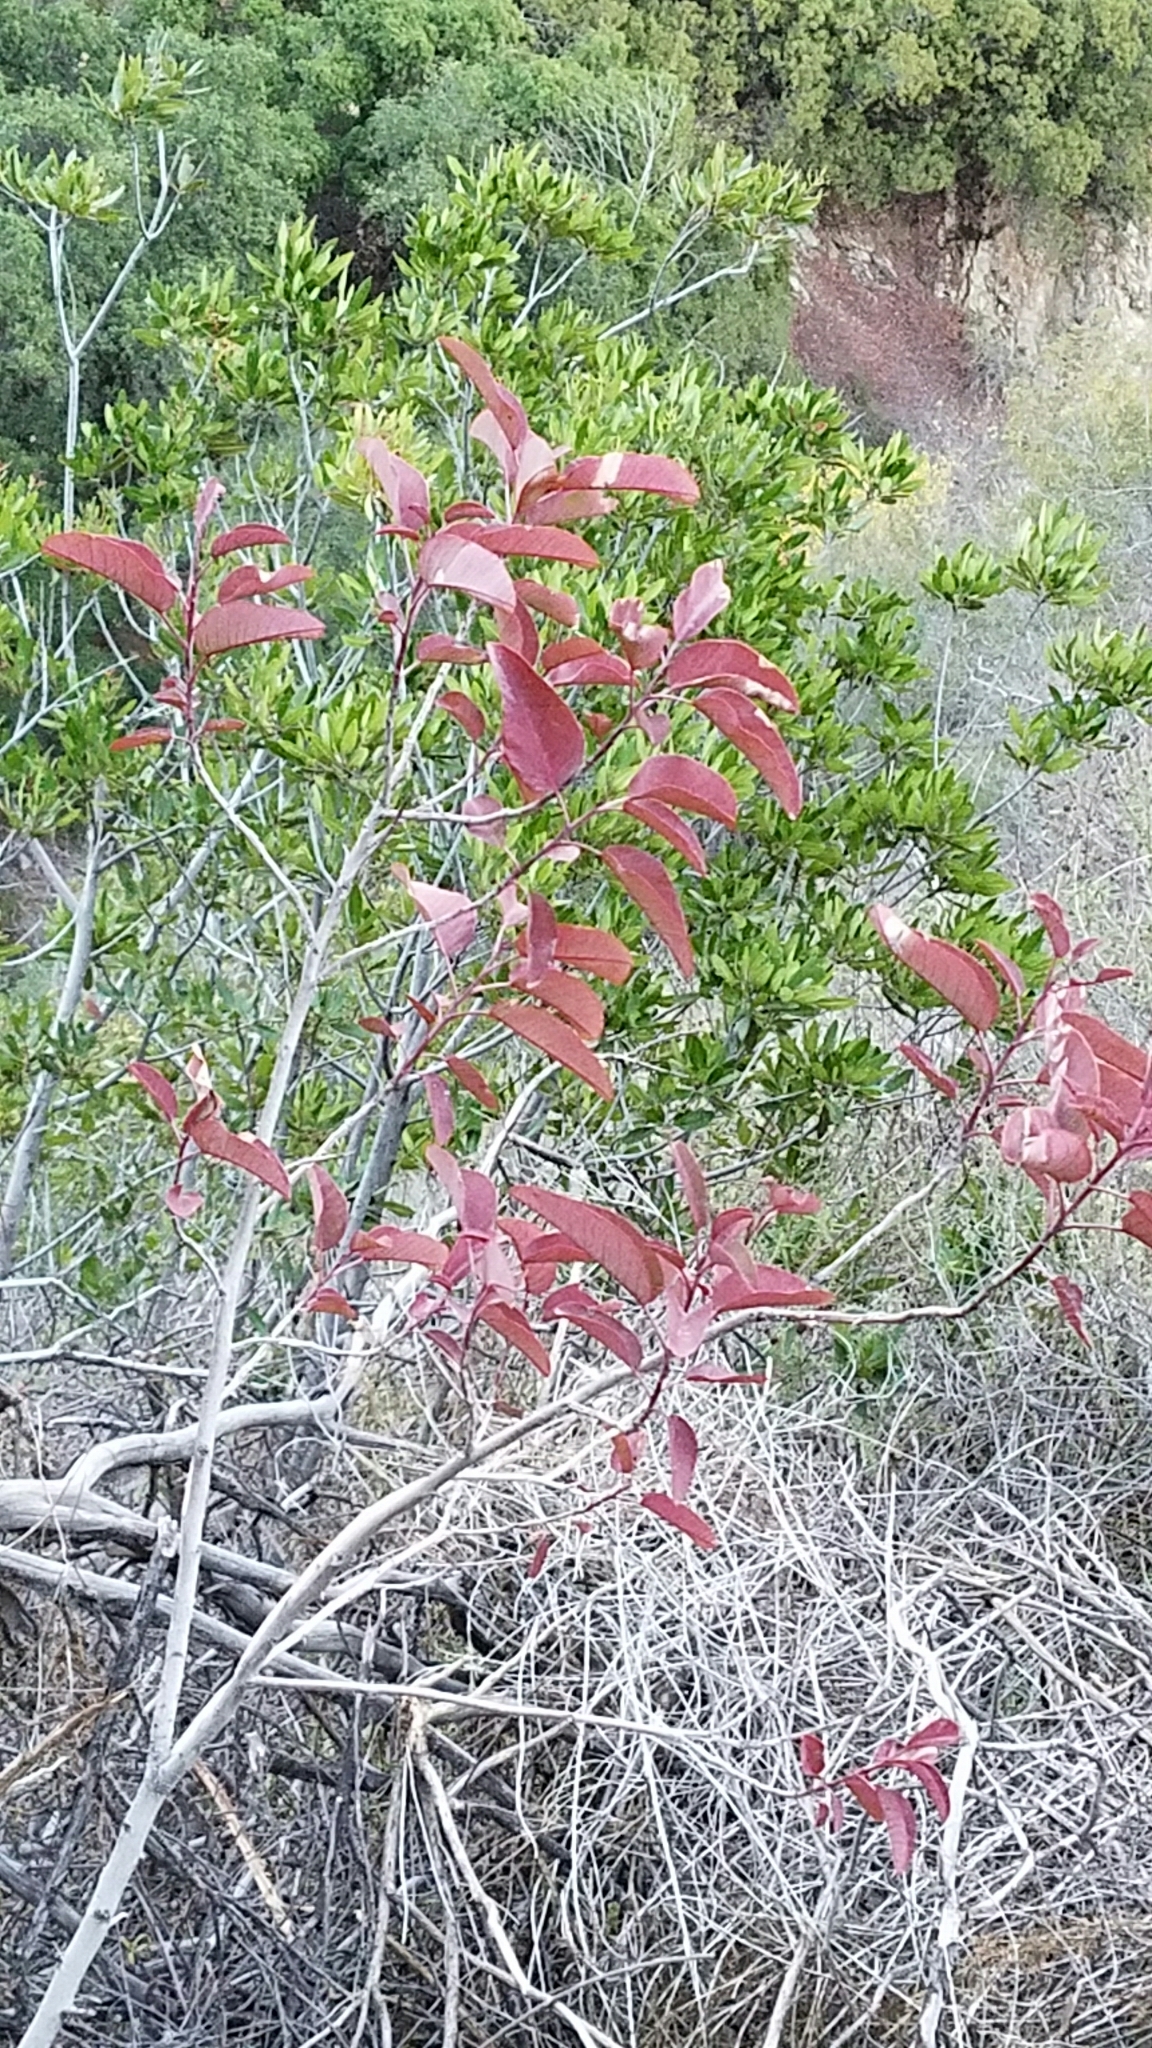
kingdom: Plantae
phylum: Tracheophyta
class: Magnoliopsida
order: Sapindales
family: Anacardiaceae
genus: Malosma
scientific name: Malosma laurina
